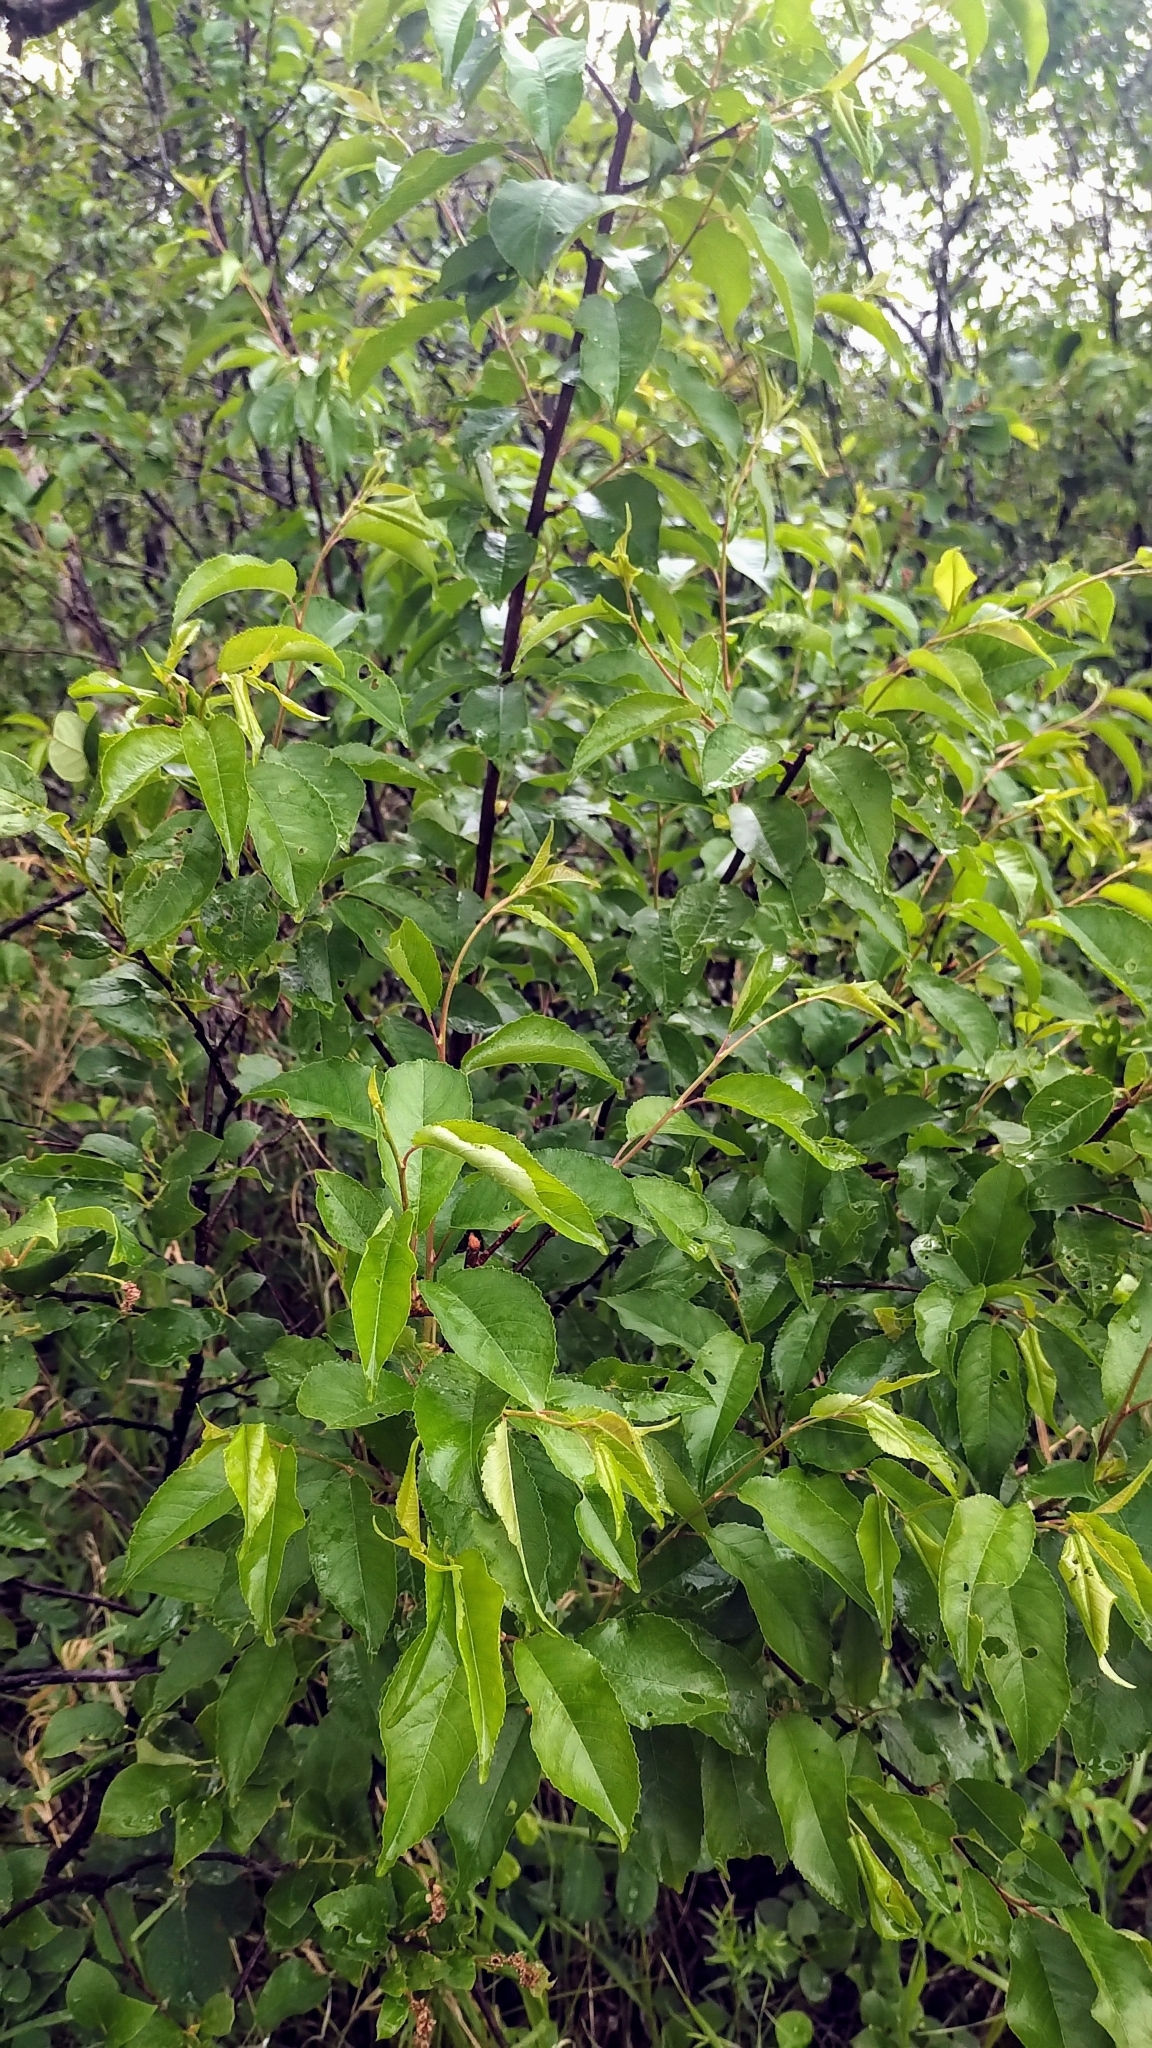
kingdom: Plantae
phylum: Tracheophyta
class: Magnoliopsida
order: Rosales
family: Rosaceae
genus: Prunus
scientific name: Prunus pensylvanica
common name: Pin cherry
